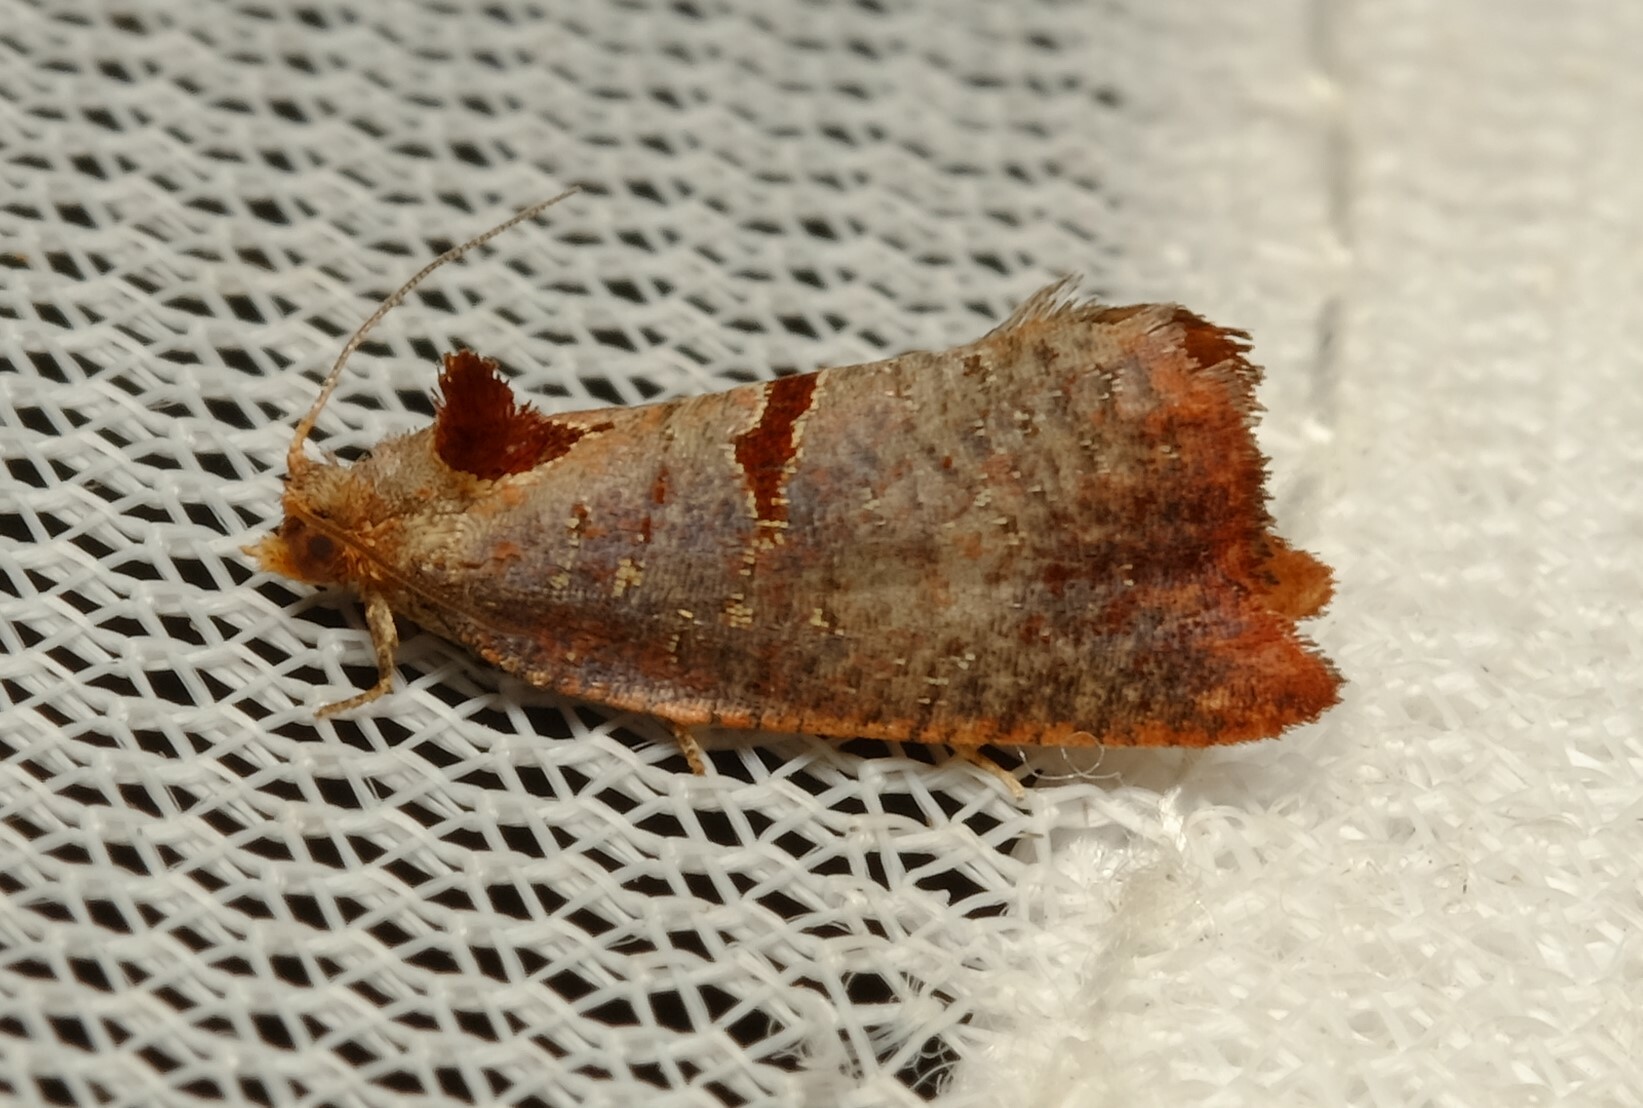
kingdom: Animalia
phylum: Arthropoda
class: Insecta
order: Lepidoptera
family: Tortricidae
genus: Glyphidoptera
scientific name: Glyphidoptera insignana
